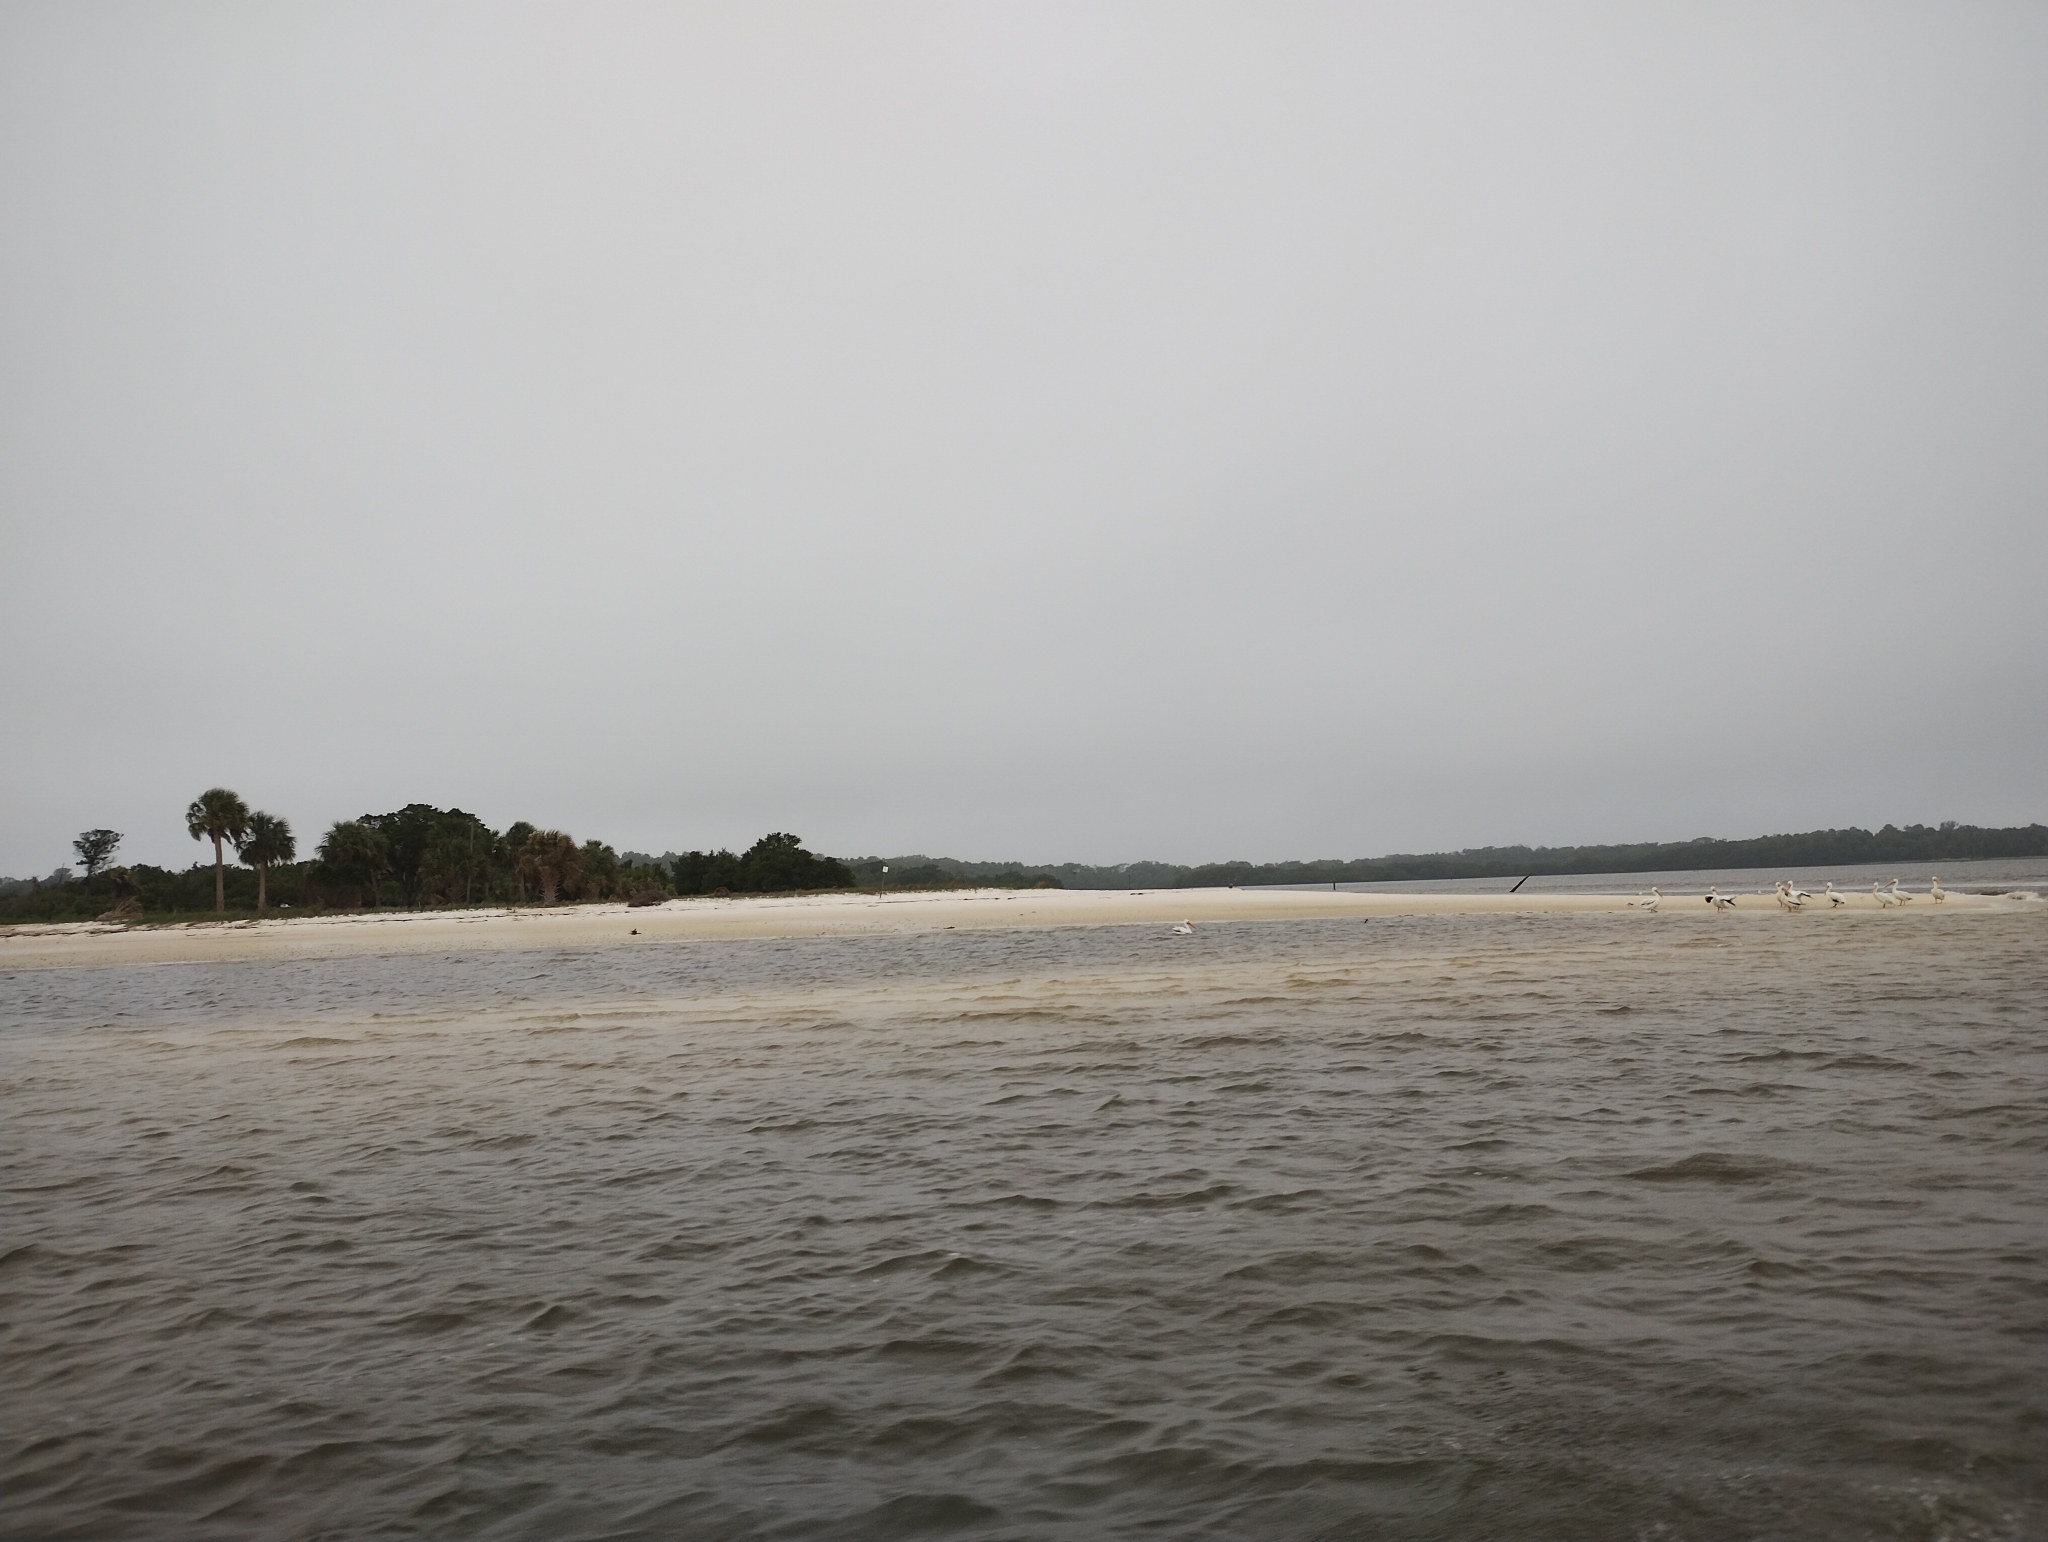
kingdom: Animalia
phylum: Chordata
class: Aves
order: Pelecaniformes
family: Pelecanidae
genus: Pelecanus
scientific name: Pelecanus erythrorhynchos
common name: American white pelican
